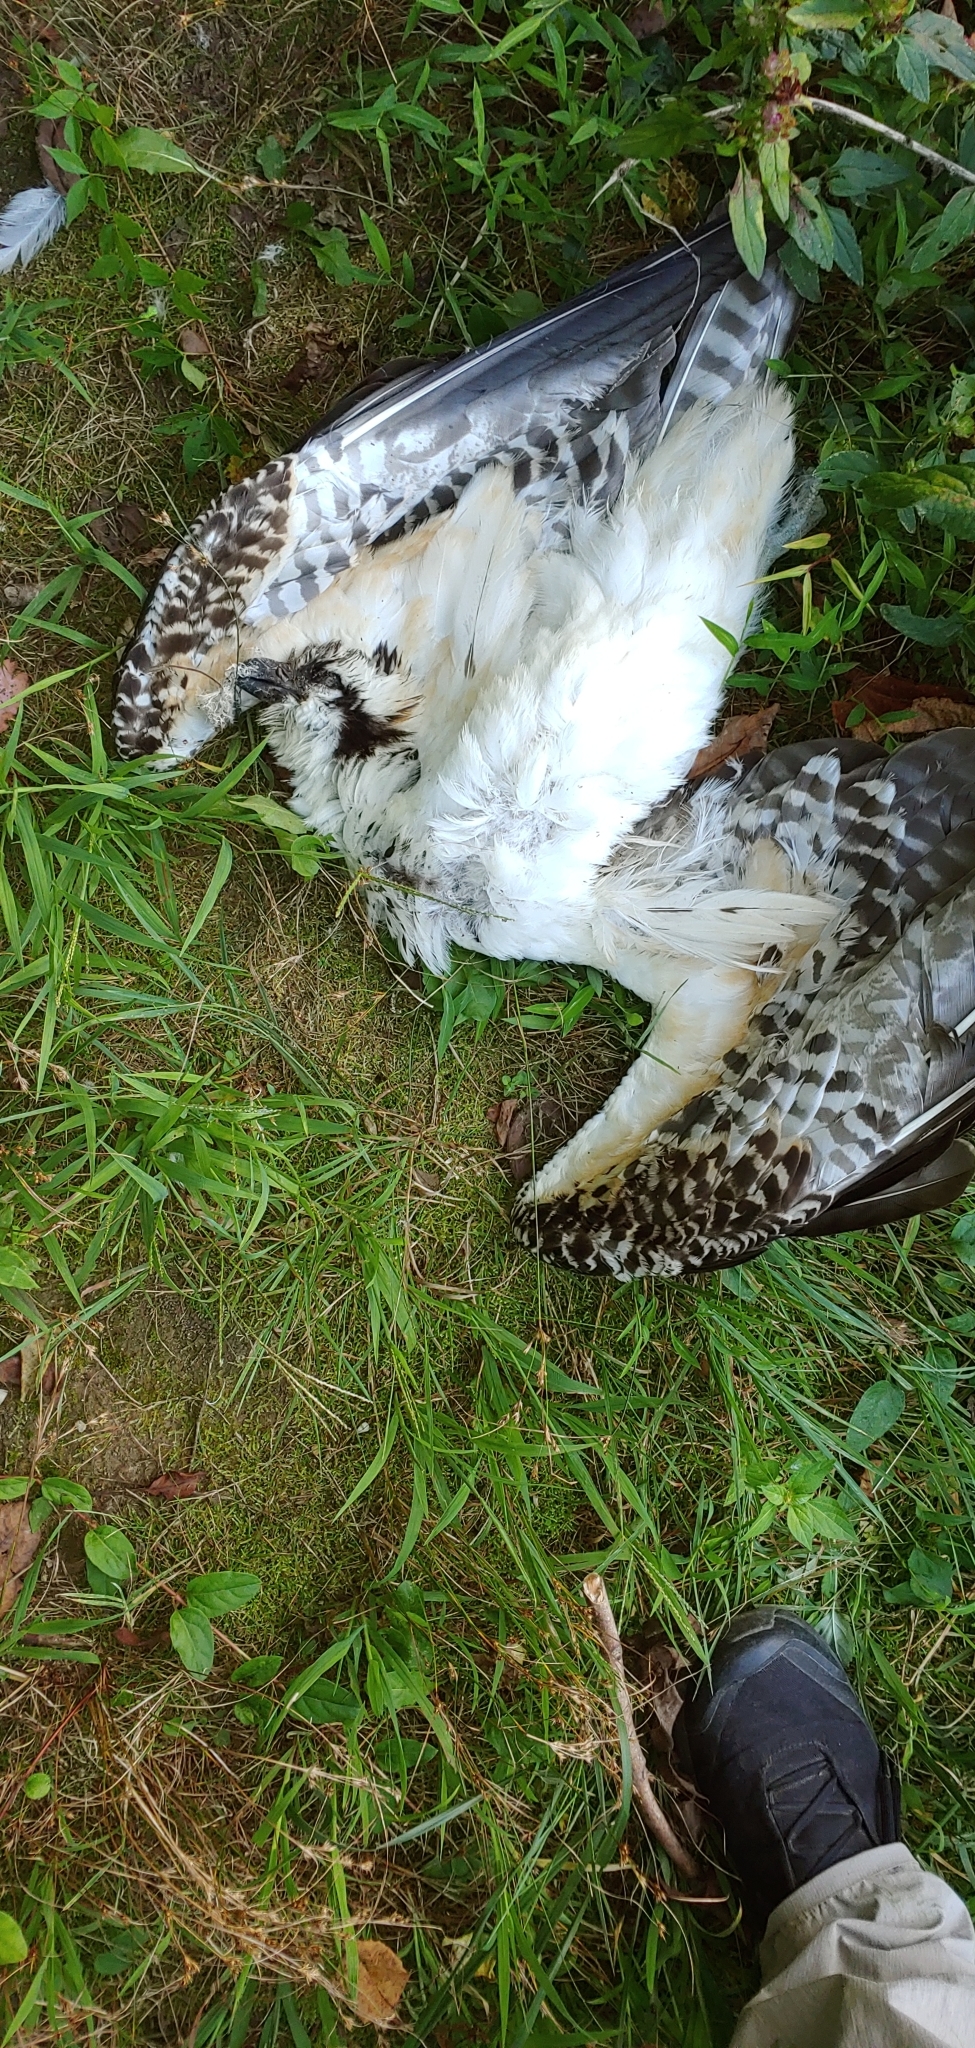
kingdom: Animalia
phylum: Chordata
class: Aves
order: Accipitriformes
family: Pandionidae
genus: Pandion
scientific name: Pandion haliaetus
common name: Osprey
